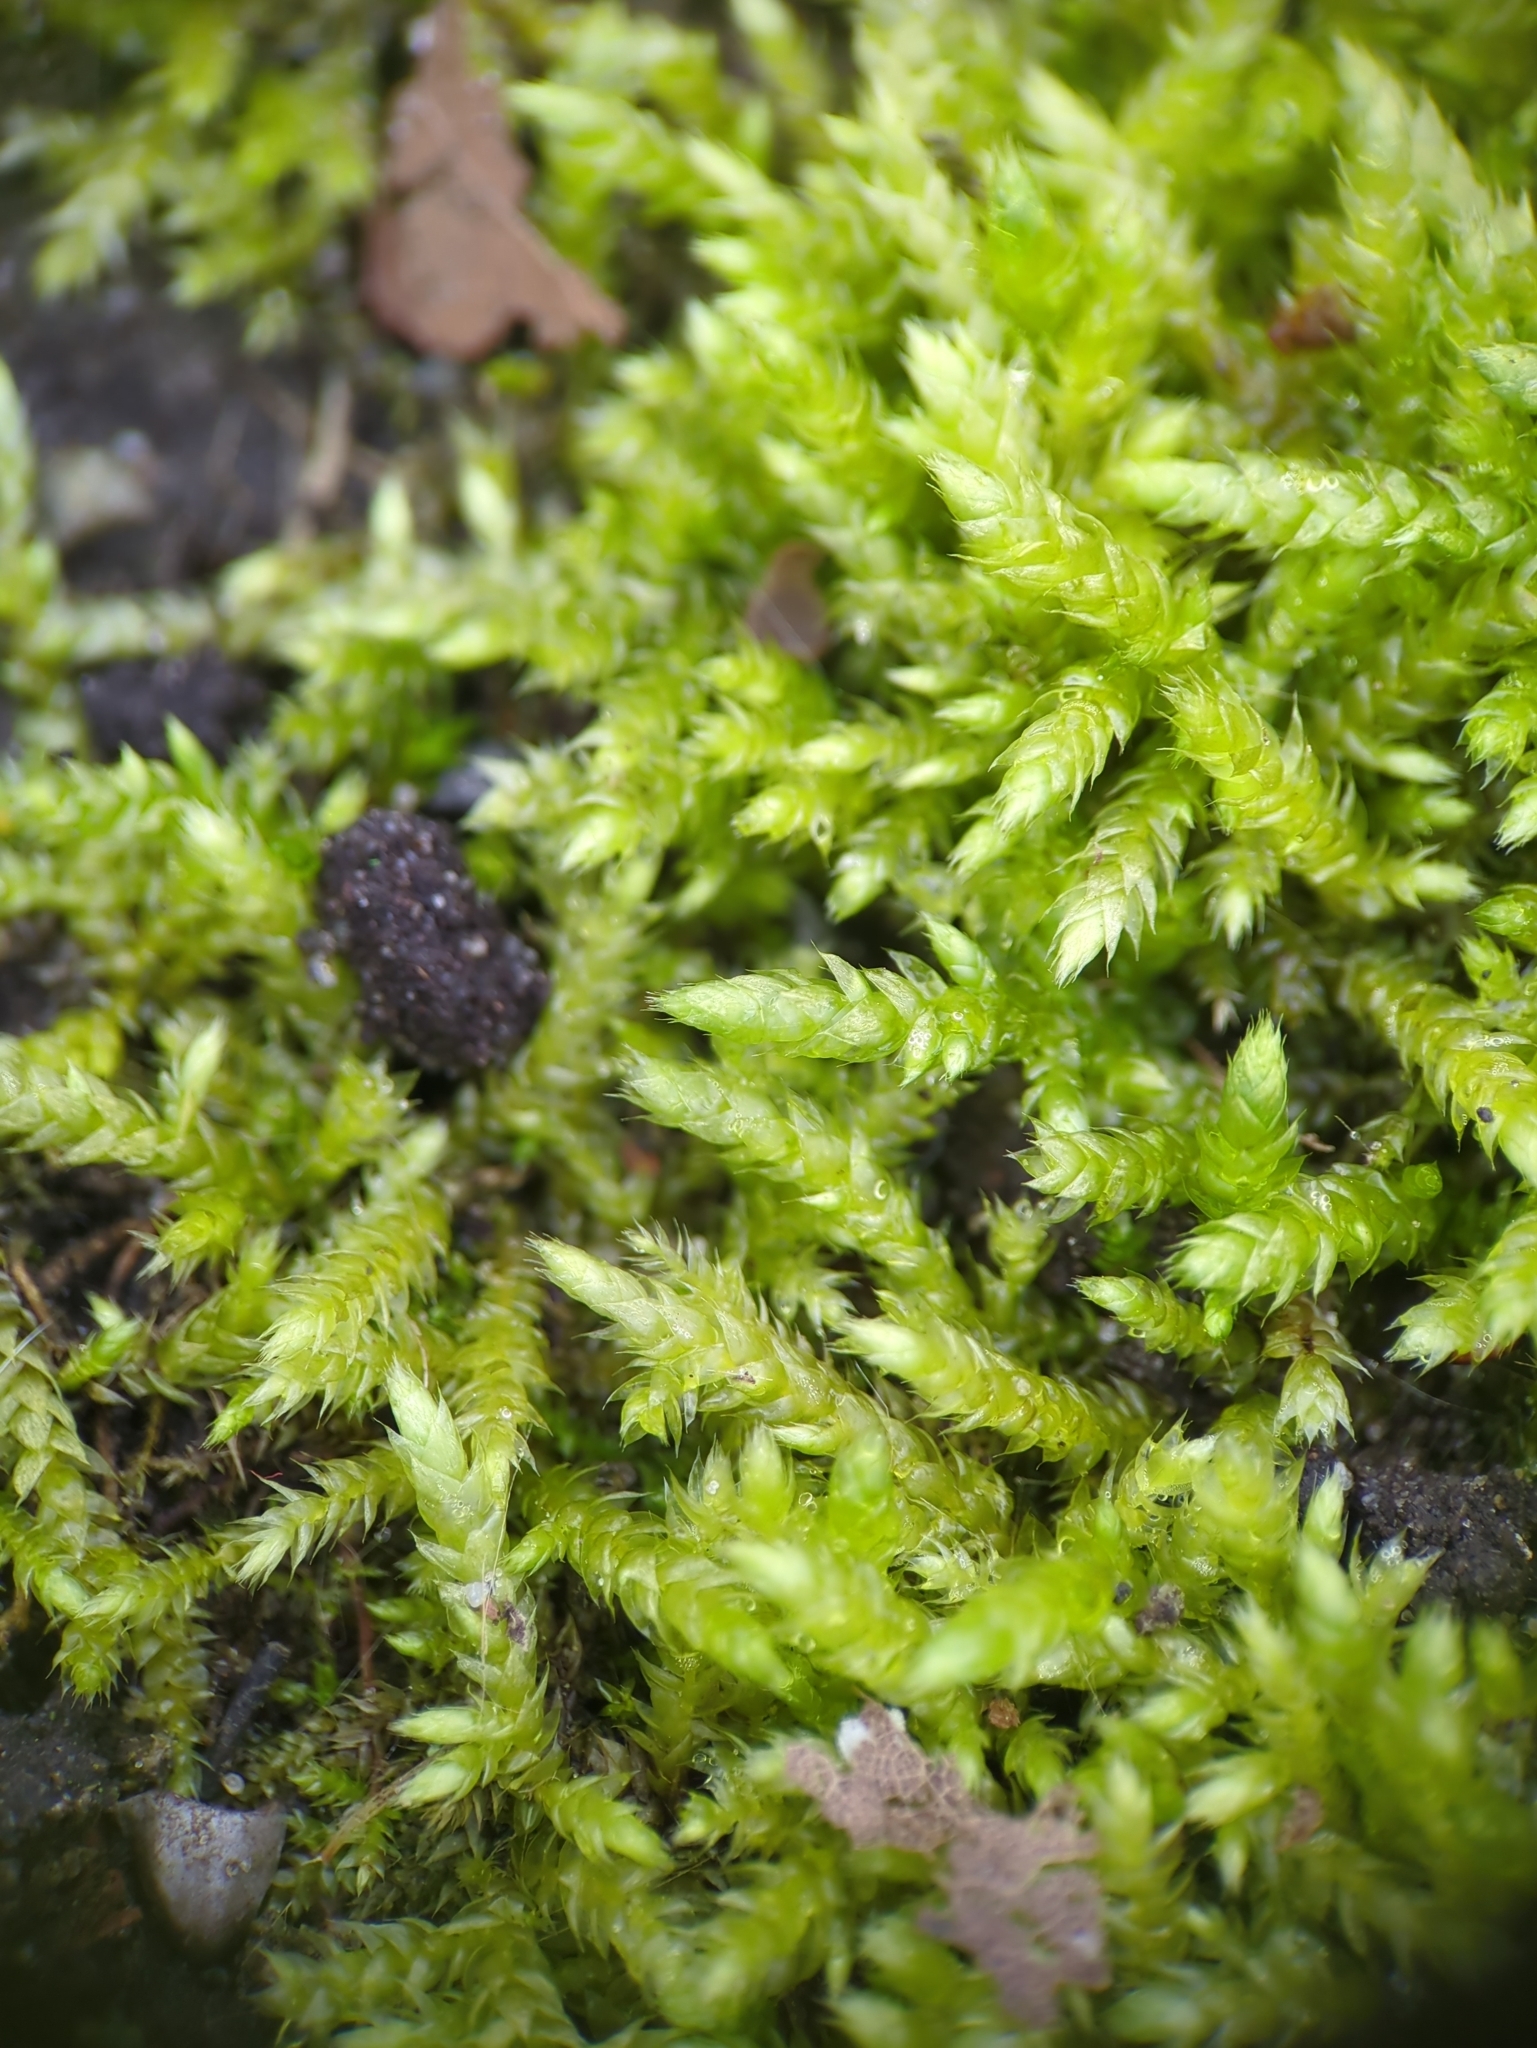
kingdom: Plantae
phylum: Bryophyta
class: Bryopsida
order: Hypnales
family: Brachytheciaceae
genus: Brachythecium
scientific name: Brachythecium rutabulum
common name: Rough-stalked feather-moss
